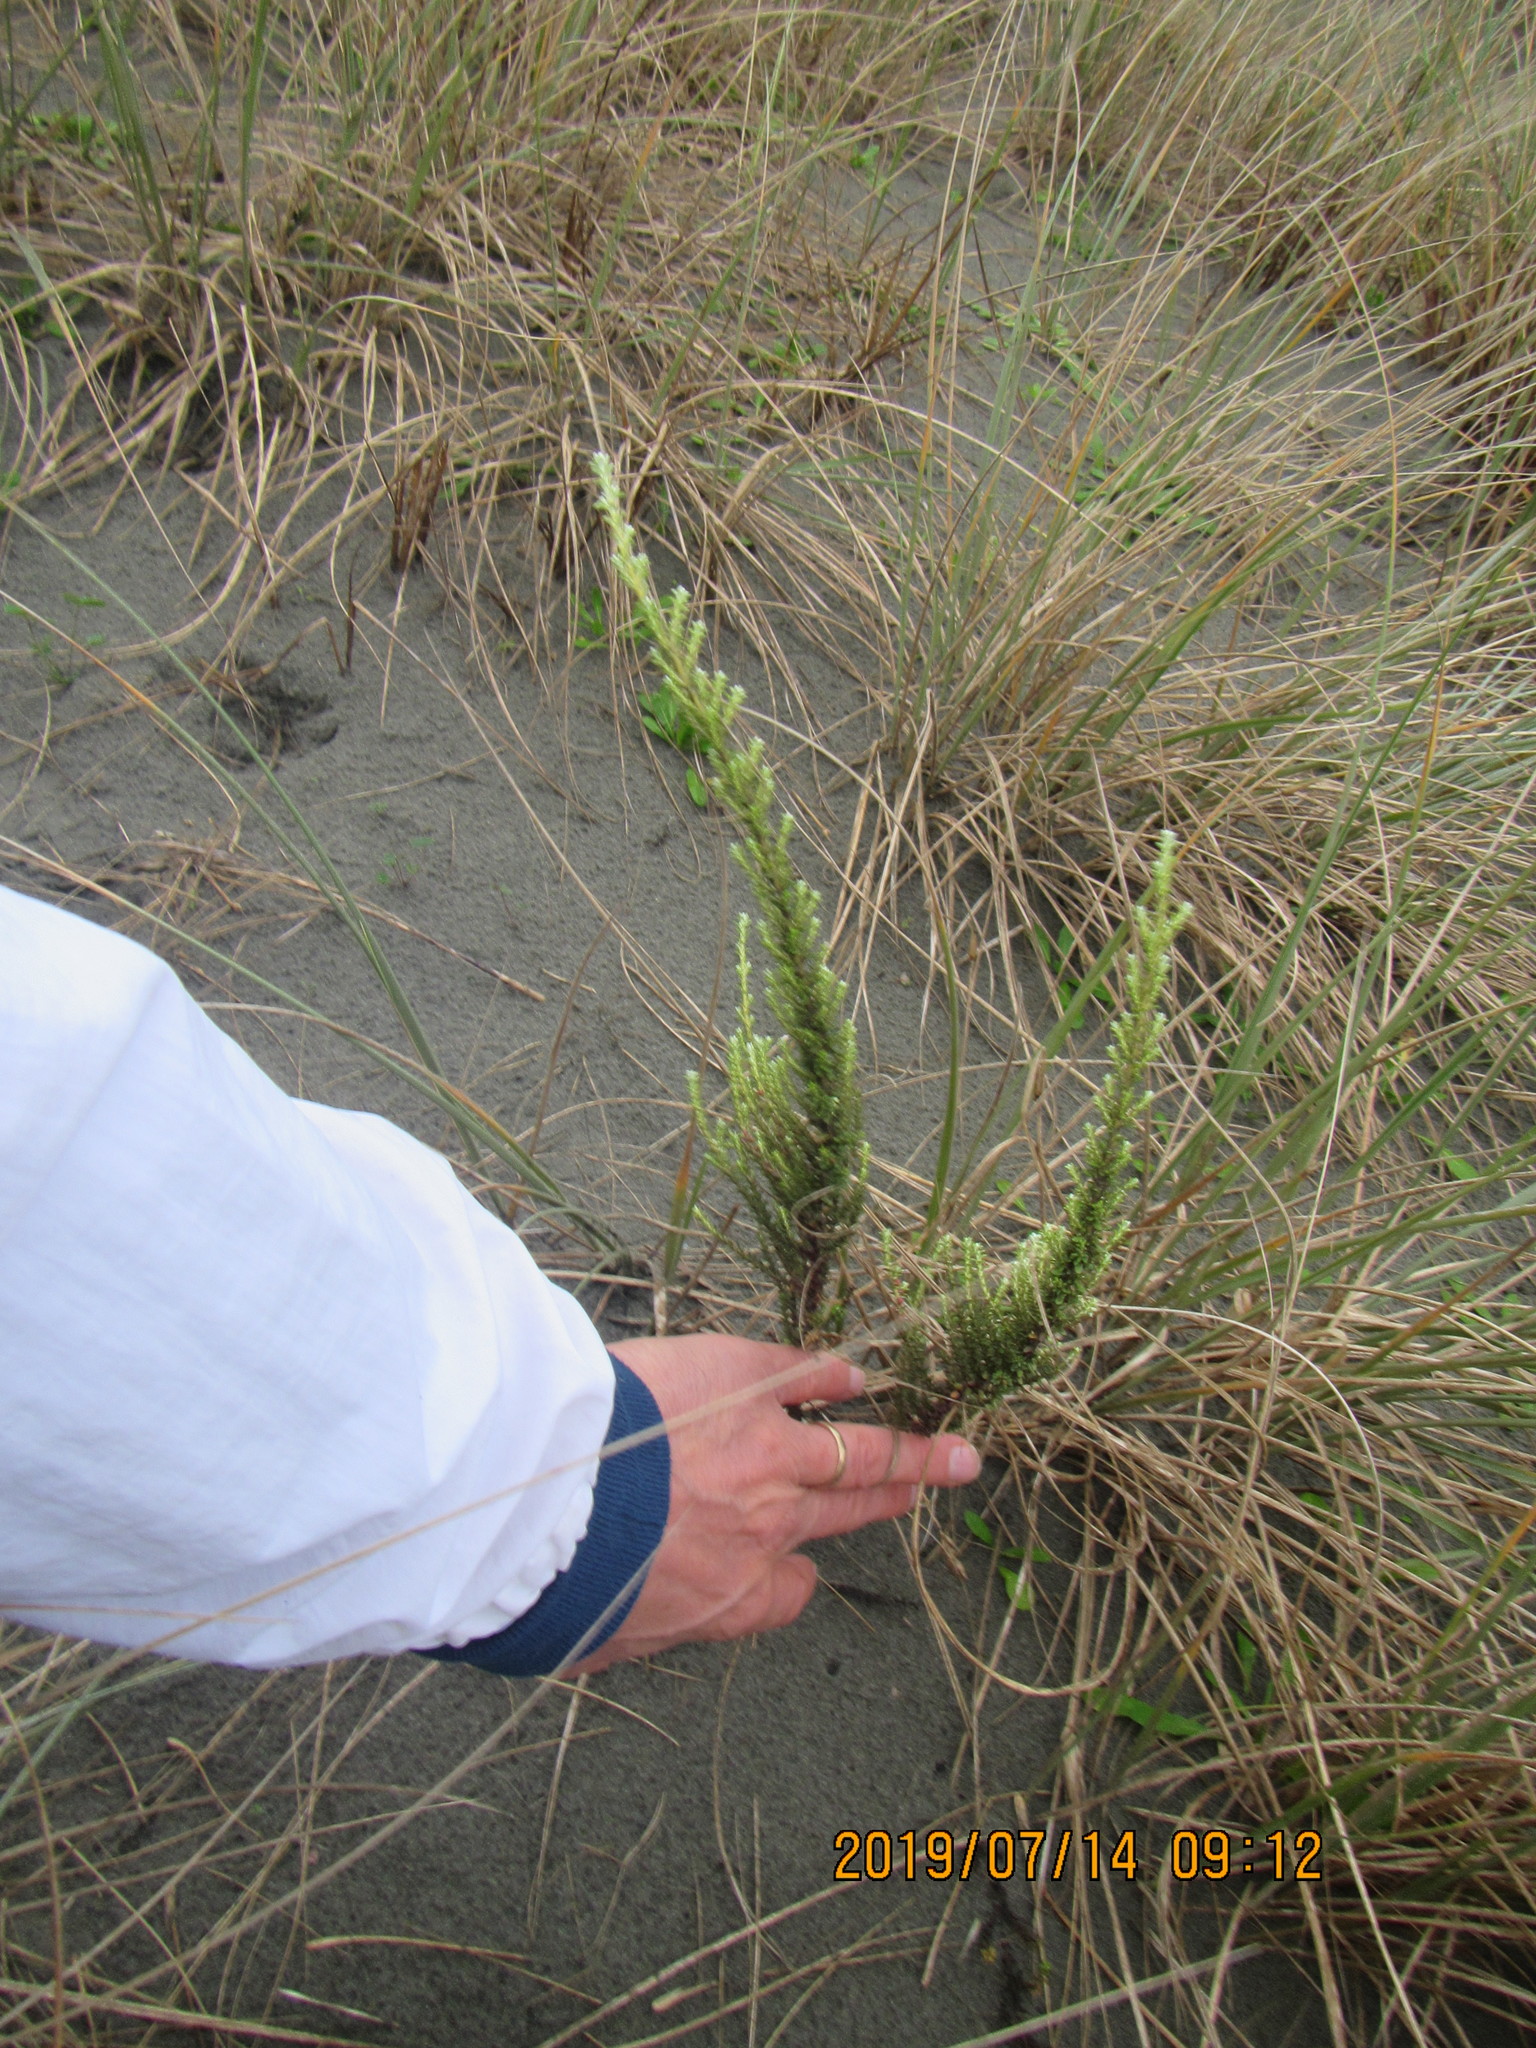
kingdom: Plantae
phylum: Tracheophyta
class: Magnoliopsida
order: Asterales
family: Asteraceae
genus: Ozothamnus
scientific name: Ozothamnus leptophyllus
